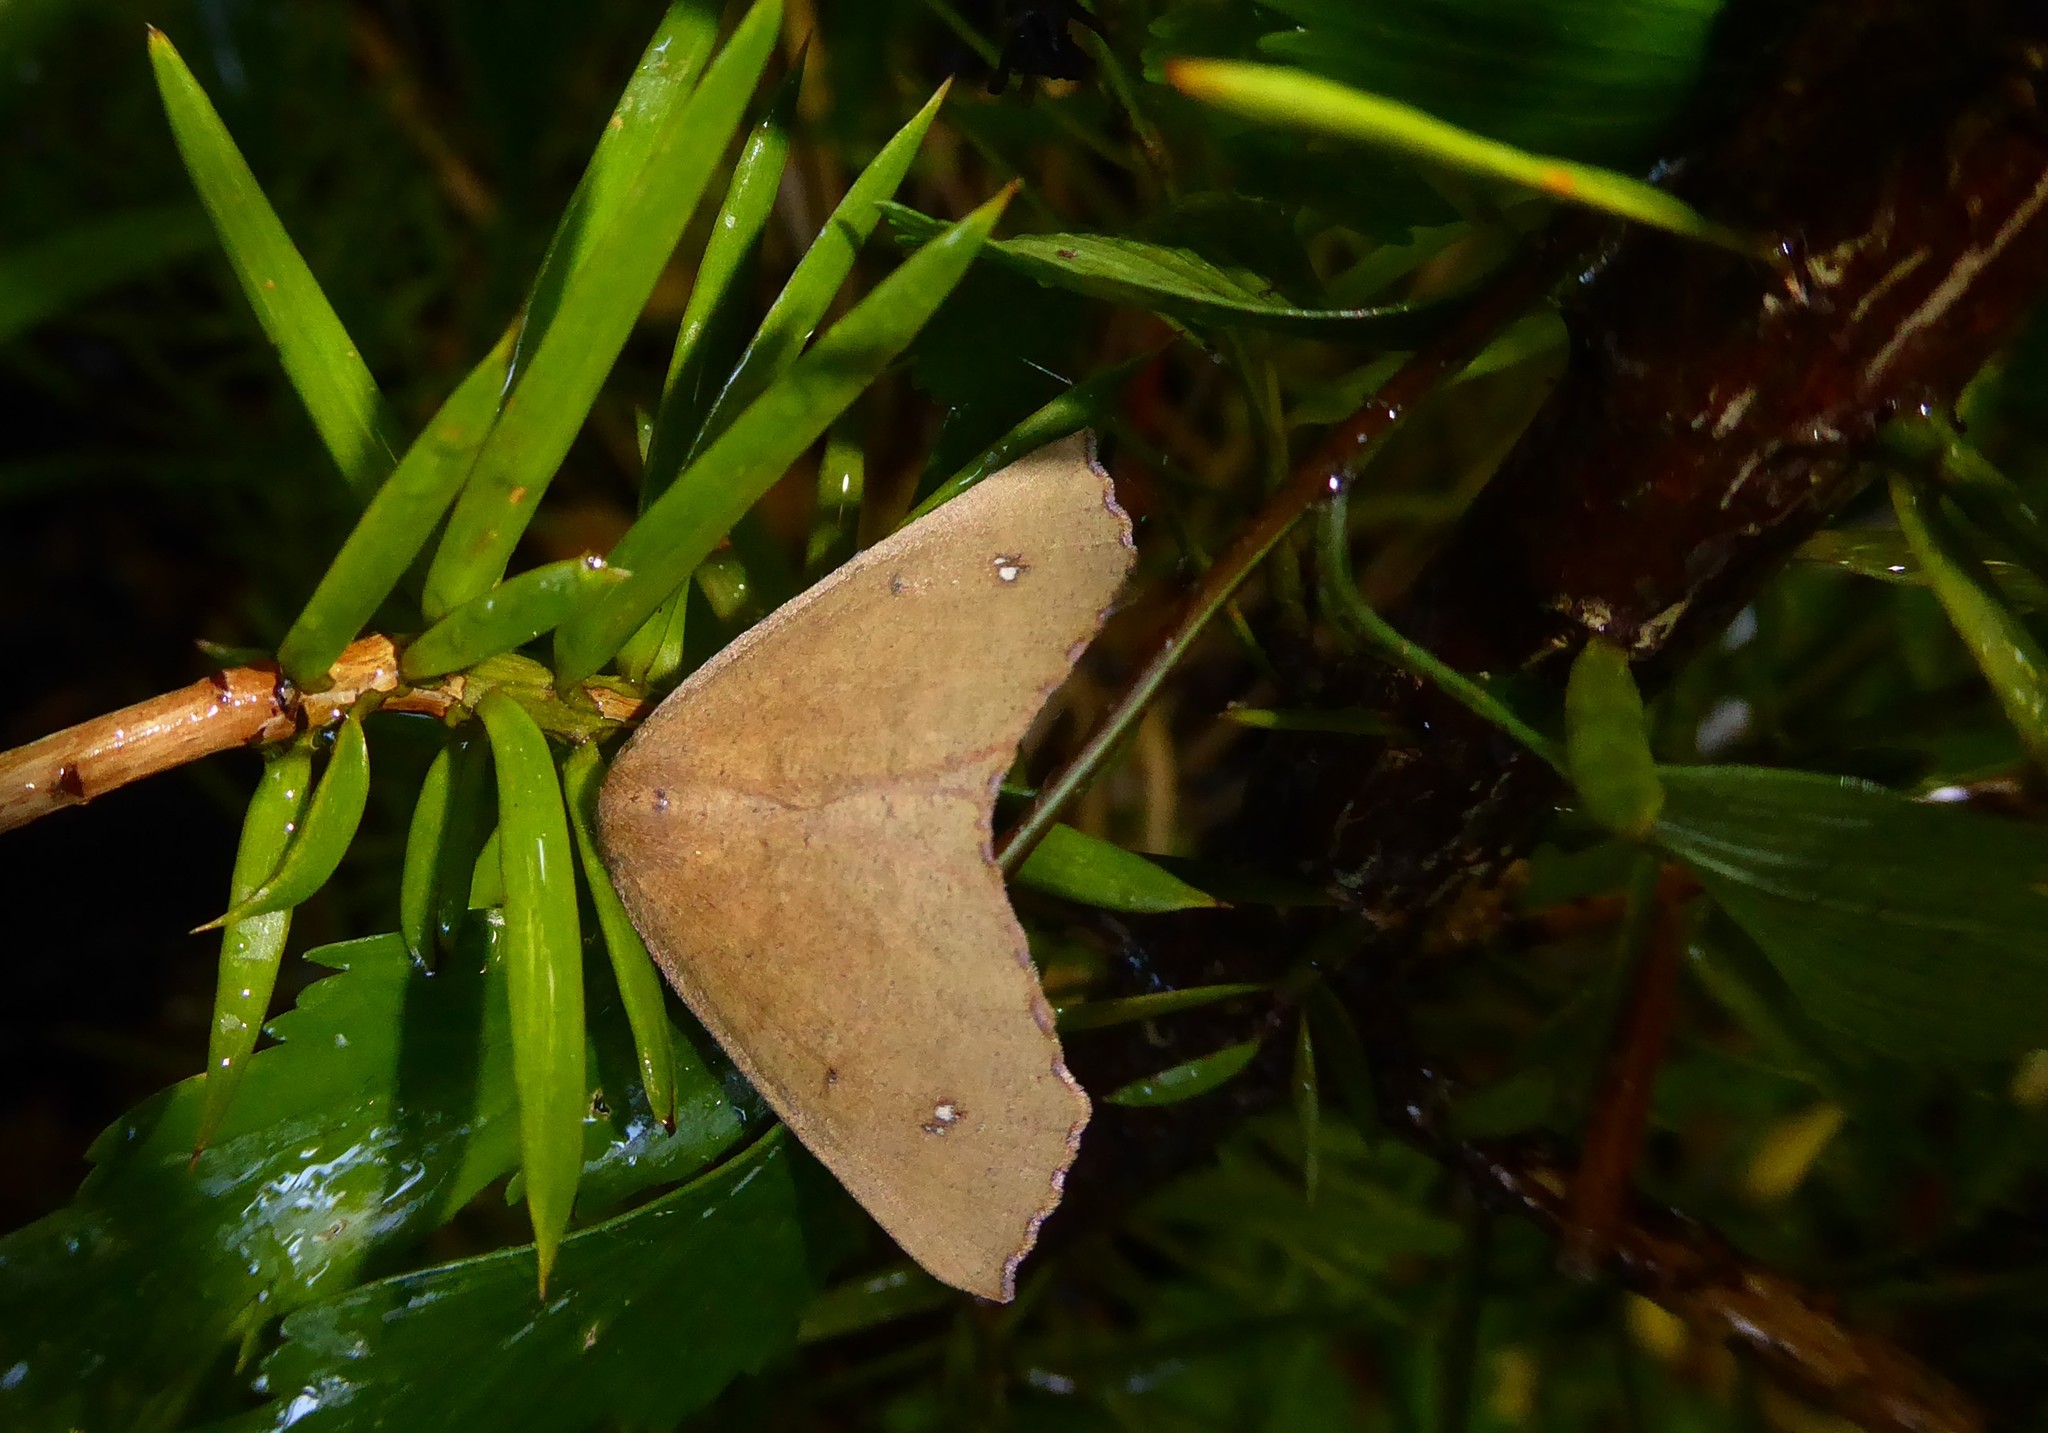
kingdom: Animalia
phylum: Arthropoda
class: Insecta
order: Lepidoptera
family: Geometridae
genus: Xyridacma
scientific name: Xyridacma ustaria
